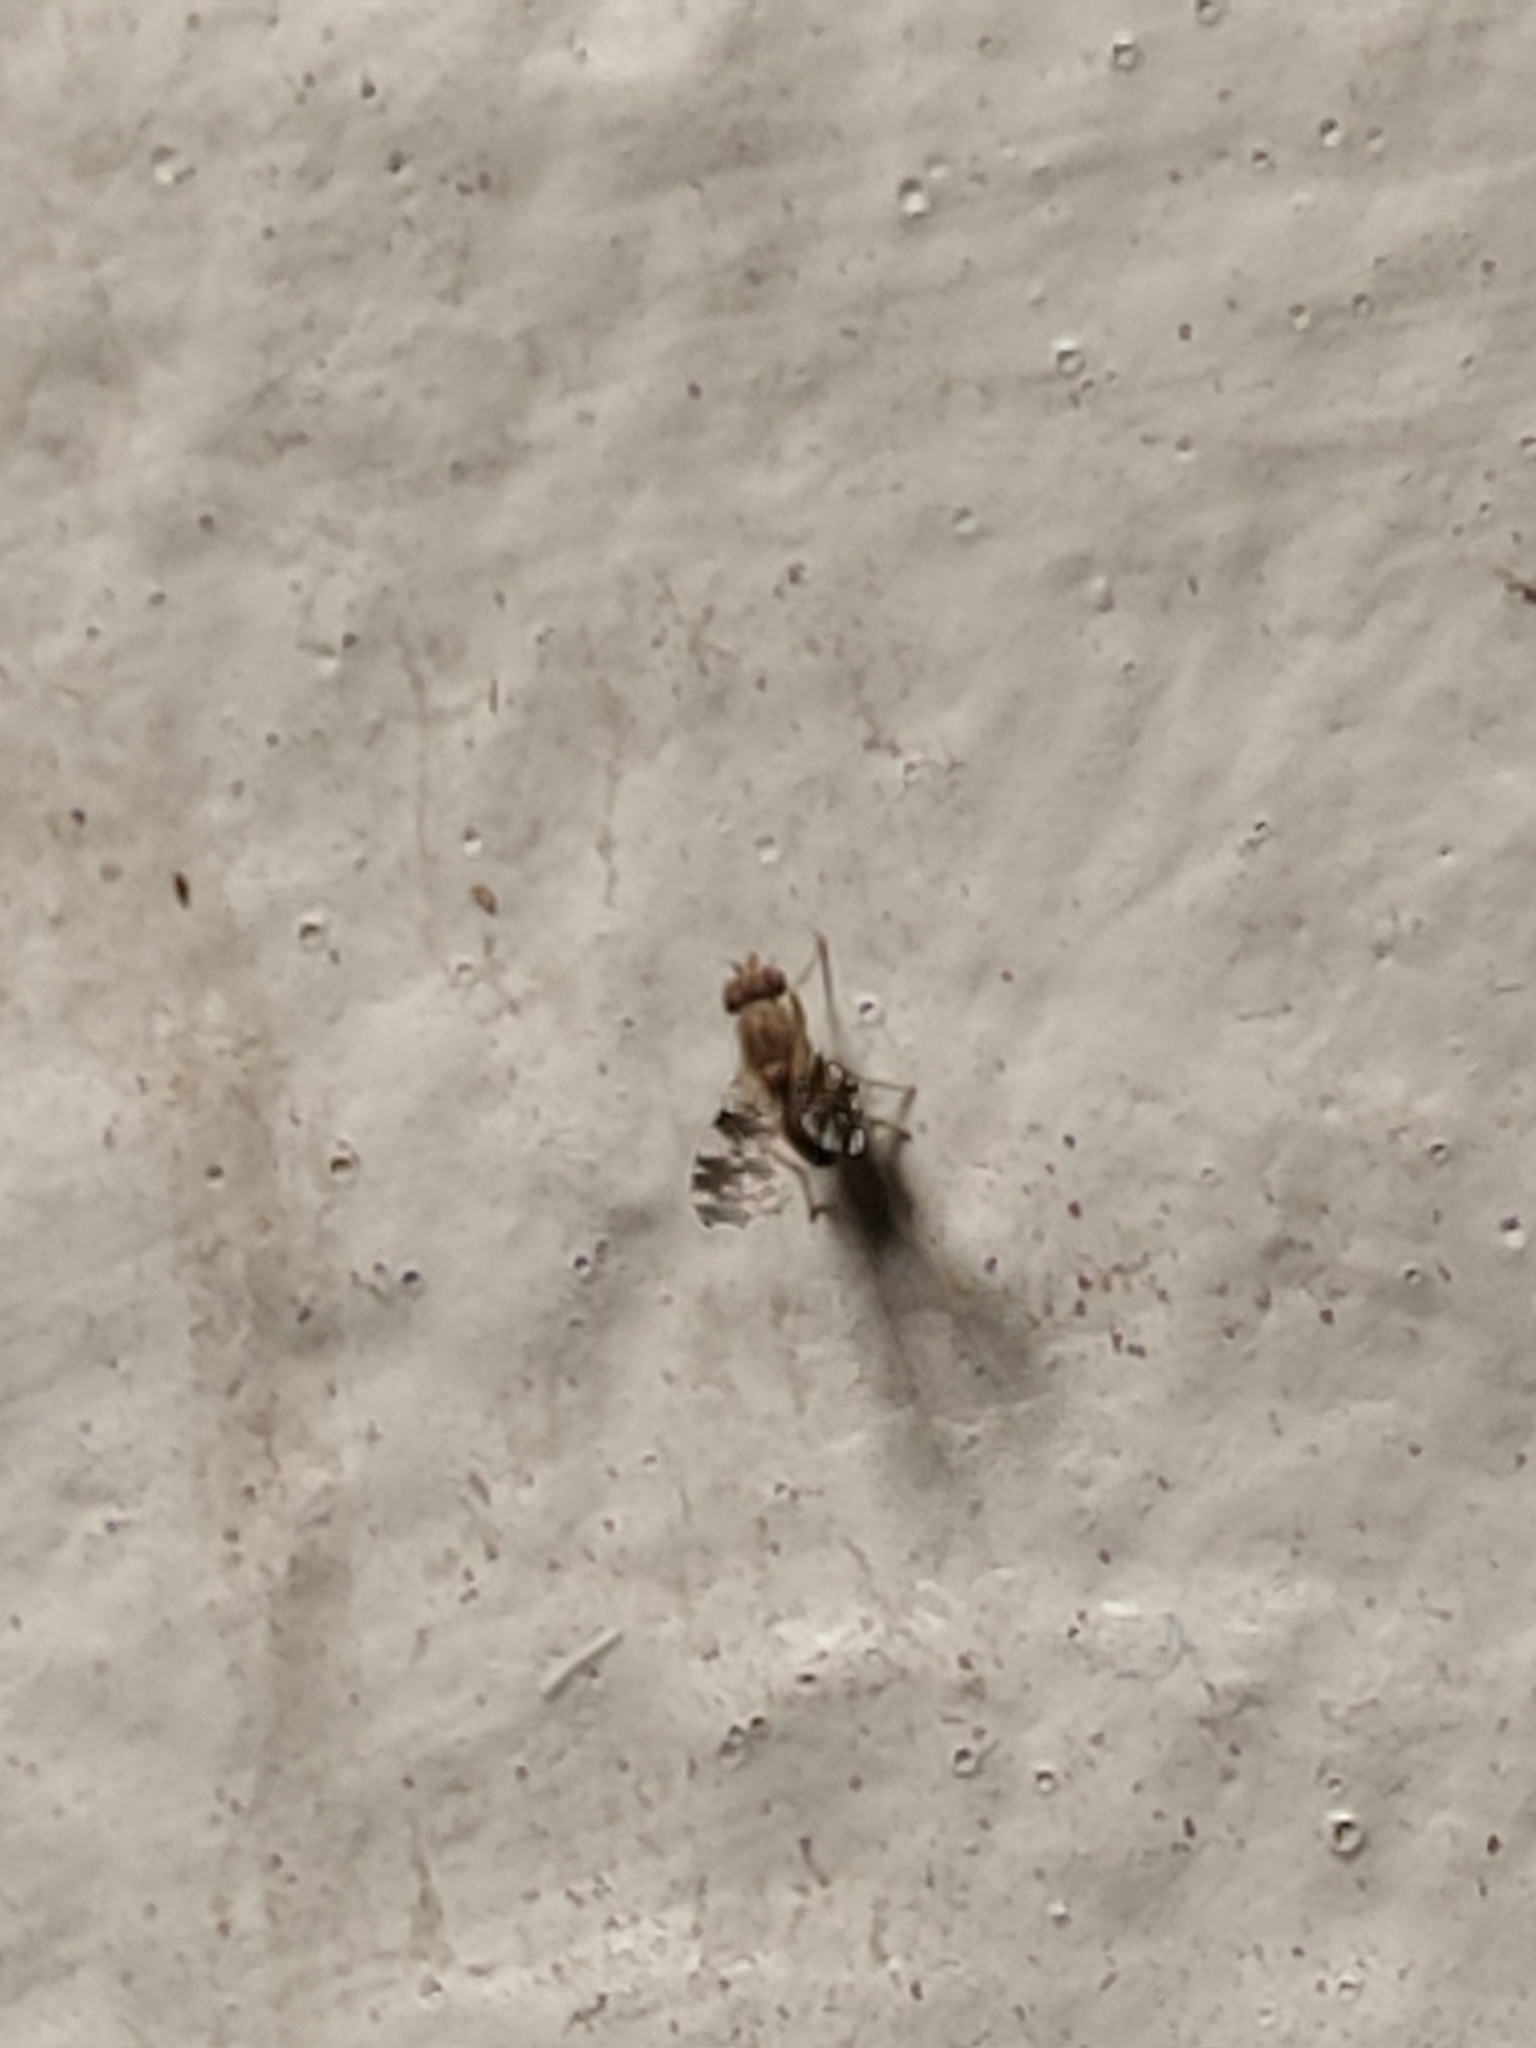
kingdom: Animalia
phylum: Arthropoda
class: Insecta
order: Diptera
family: Heleomyzidae
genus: Trixoscelis
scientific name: Trixoscelis ornata
